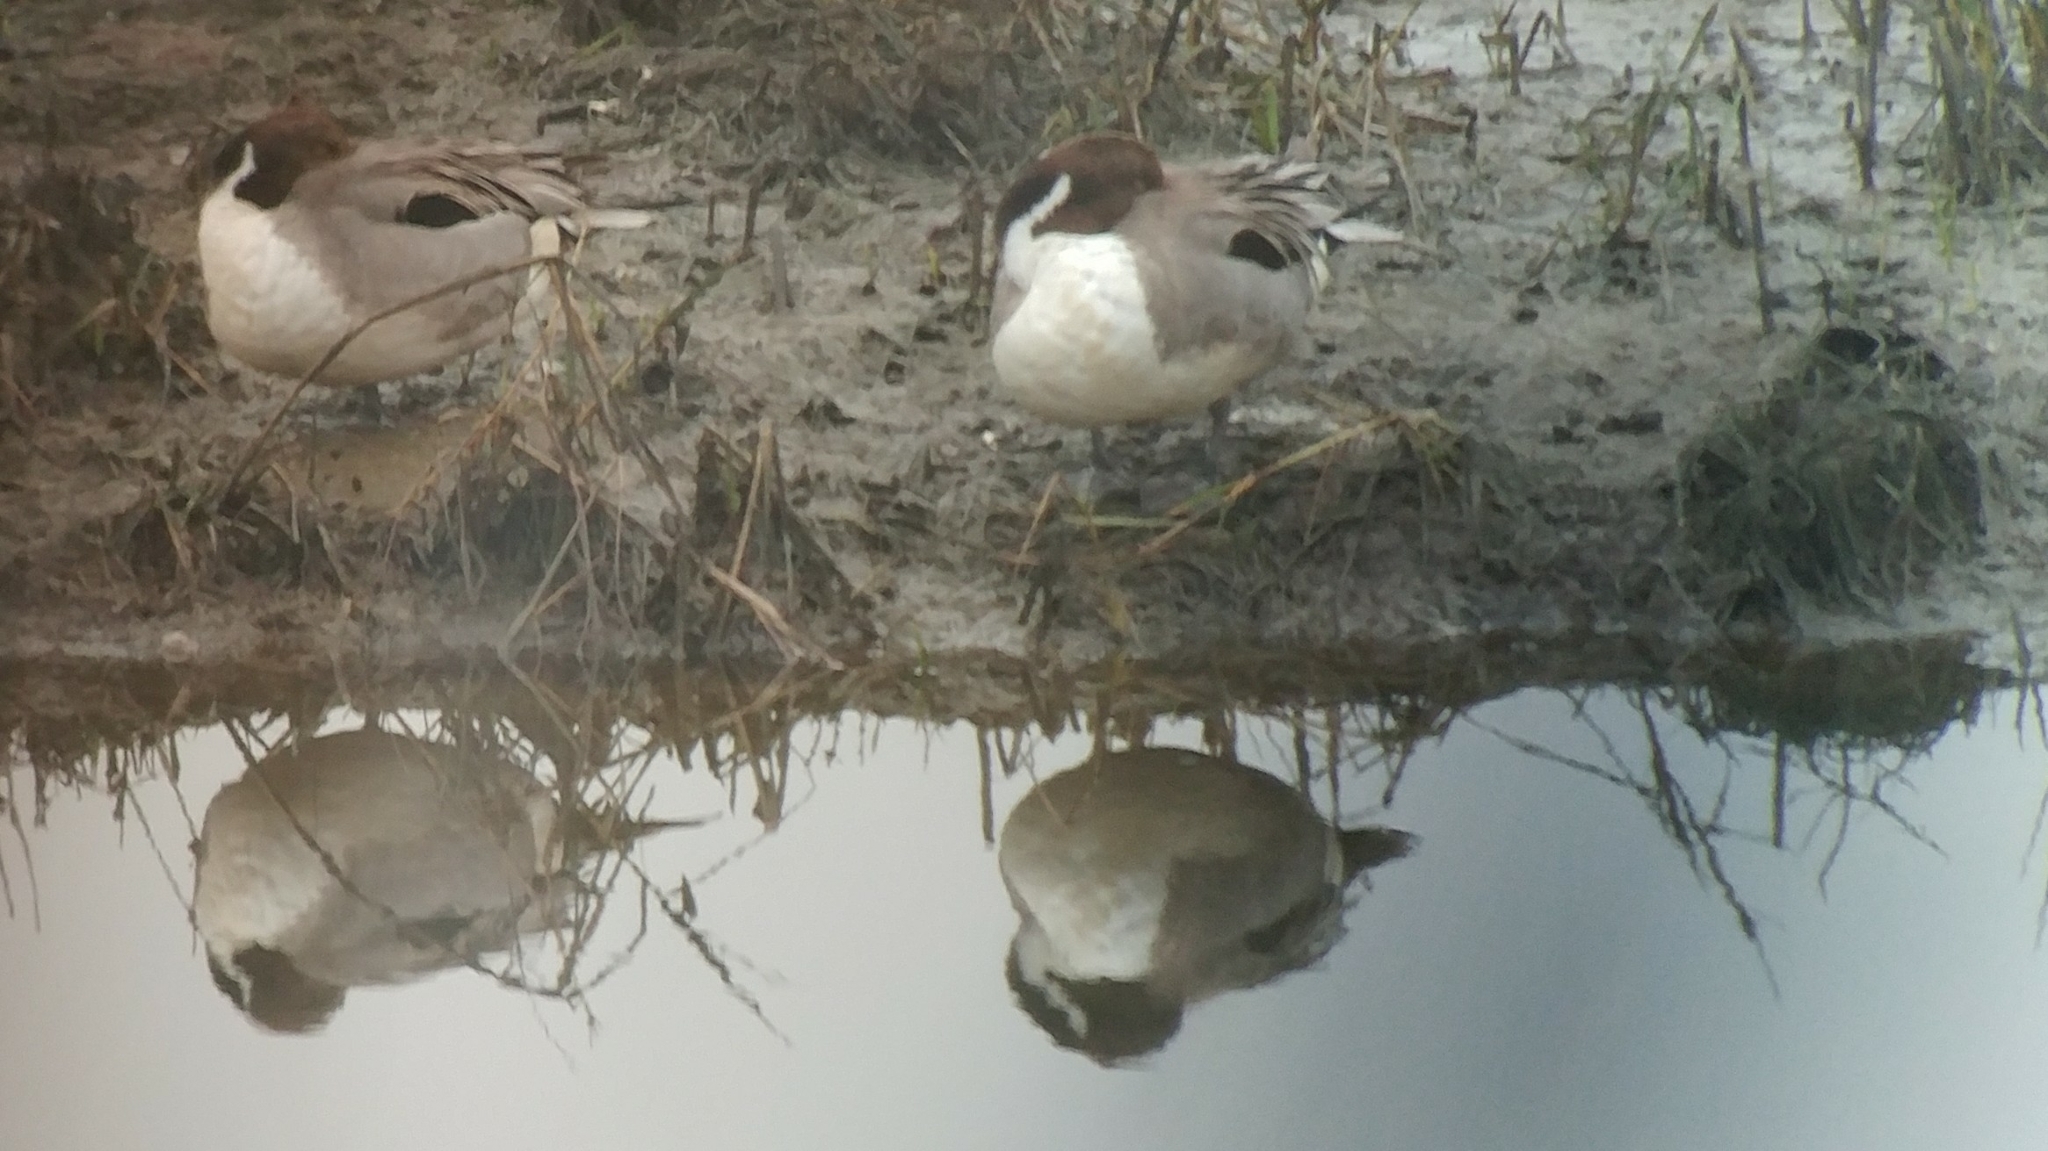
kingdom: Animalia
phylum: Chordata
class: Aves
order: Anseriformes
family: Anatidae
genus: Anas
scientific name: Anas acuta
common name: Northern pintail
